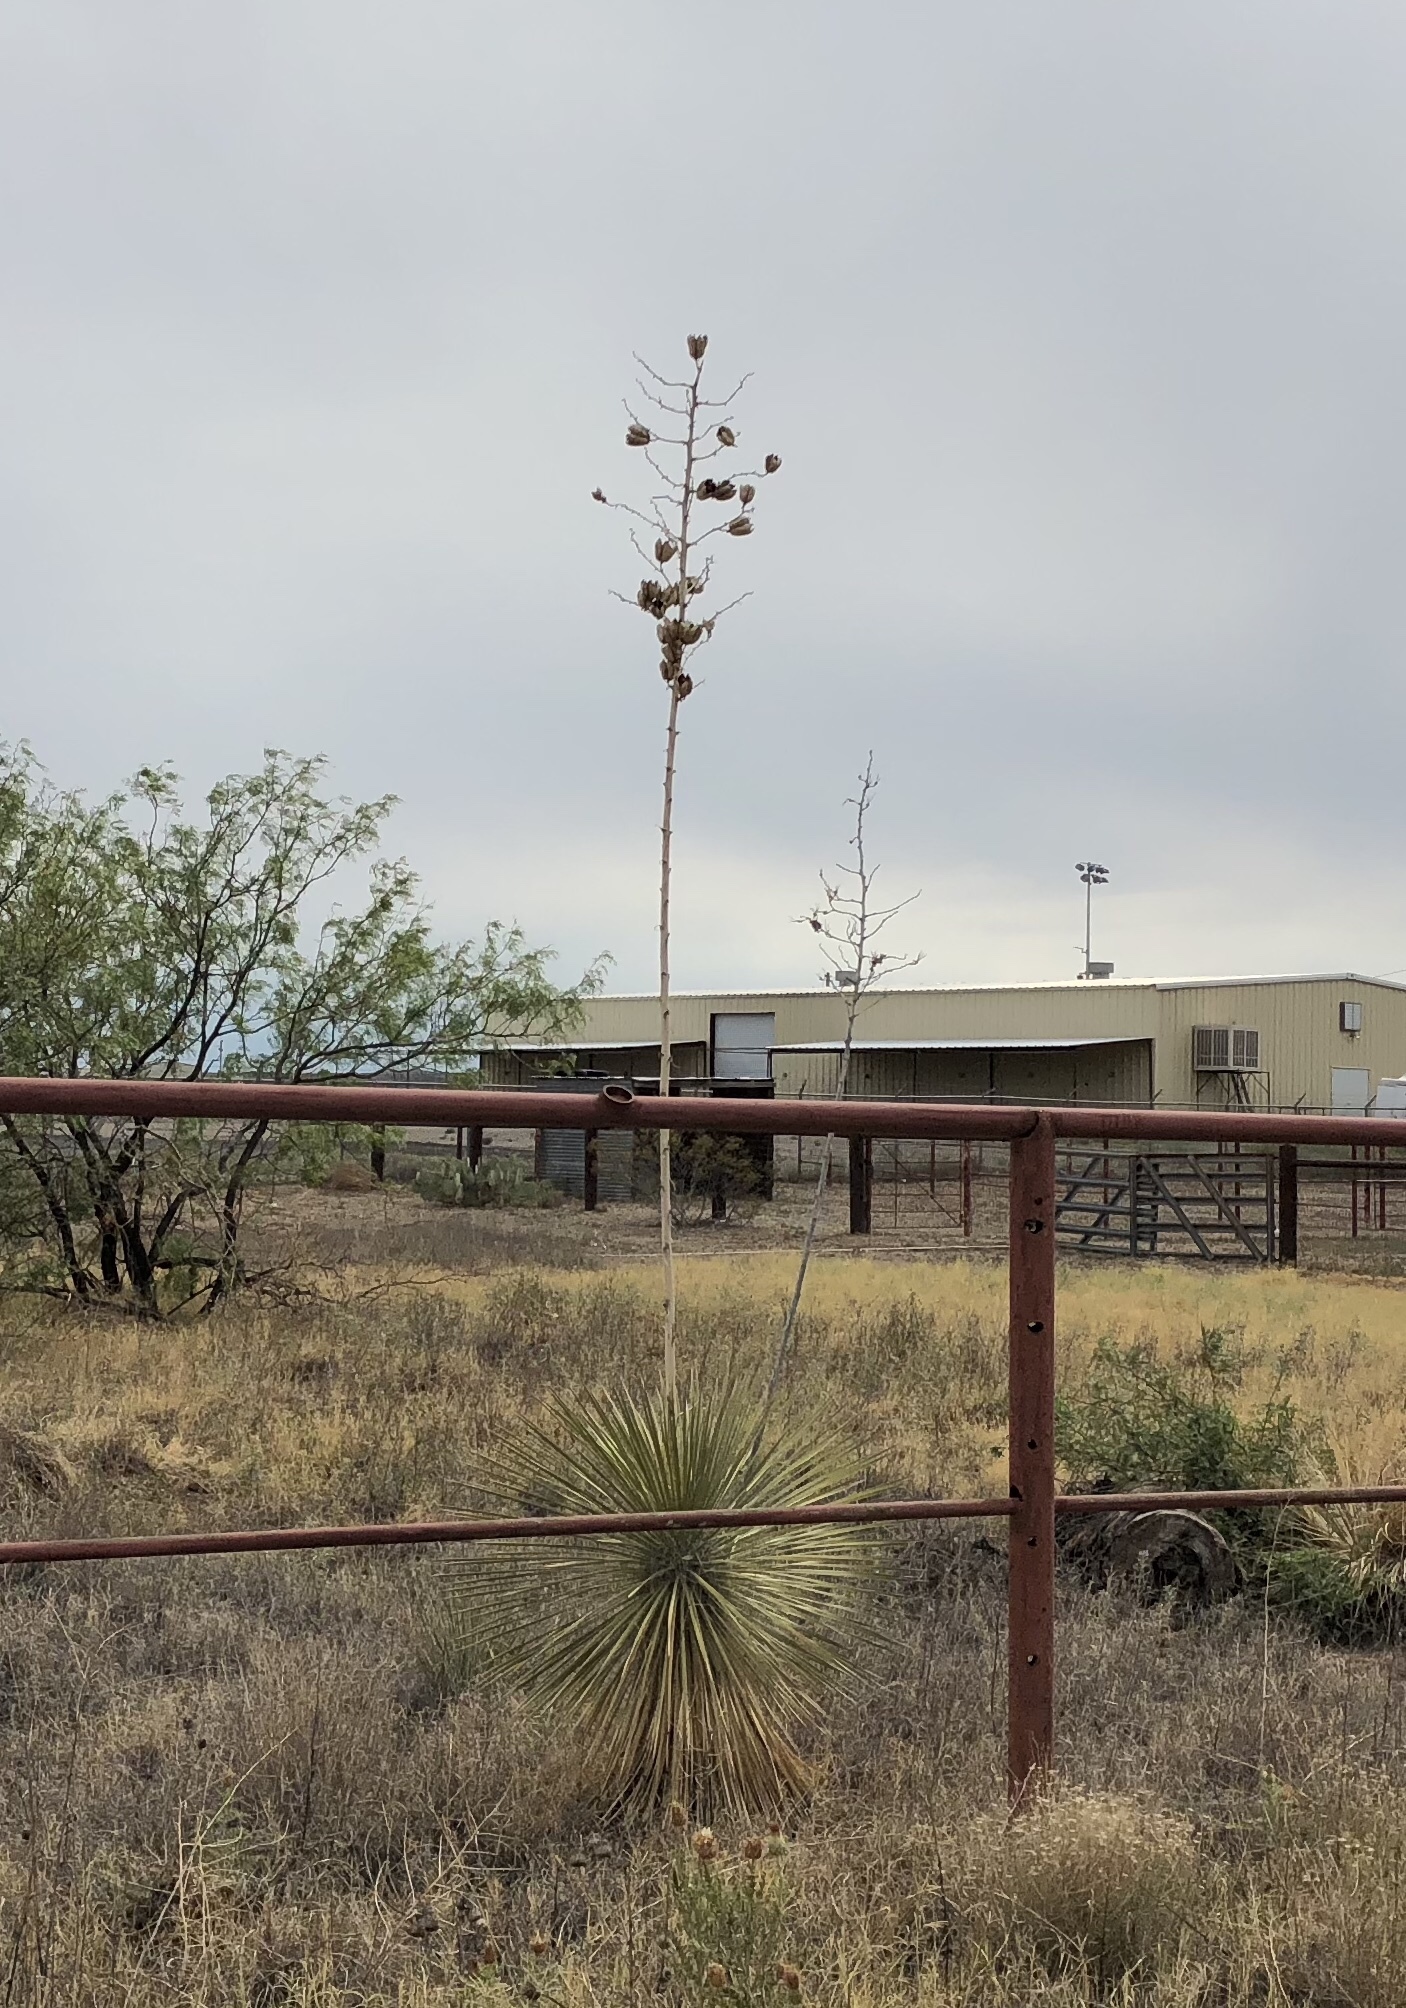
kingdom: Plantae
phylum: Tracheophyta
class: Liliopsida
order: Asparagales
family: Asparagaceae
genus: Yucca
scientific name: Yucca elata
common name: Palmella
